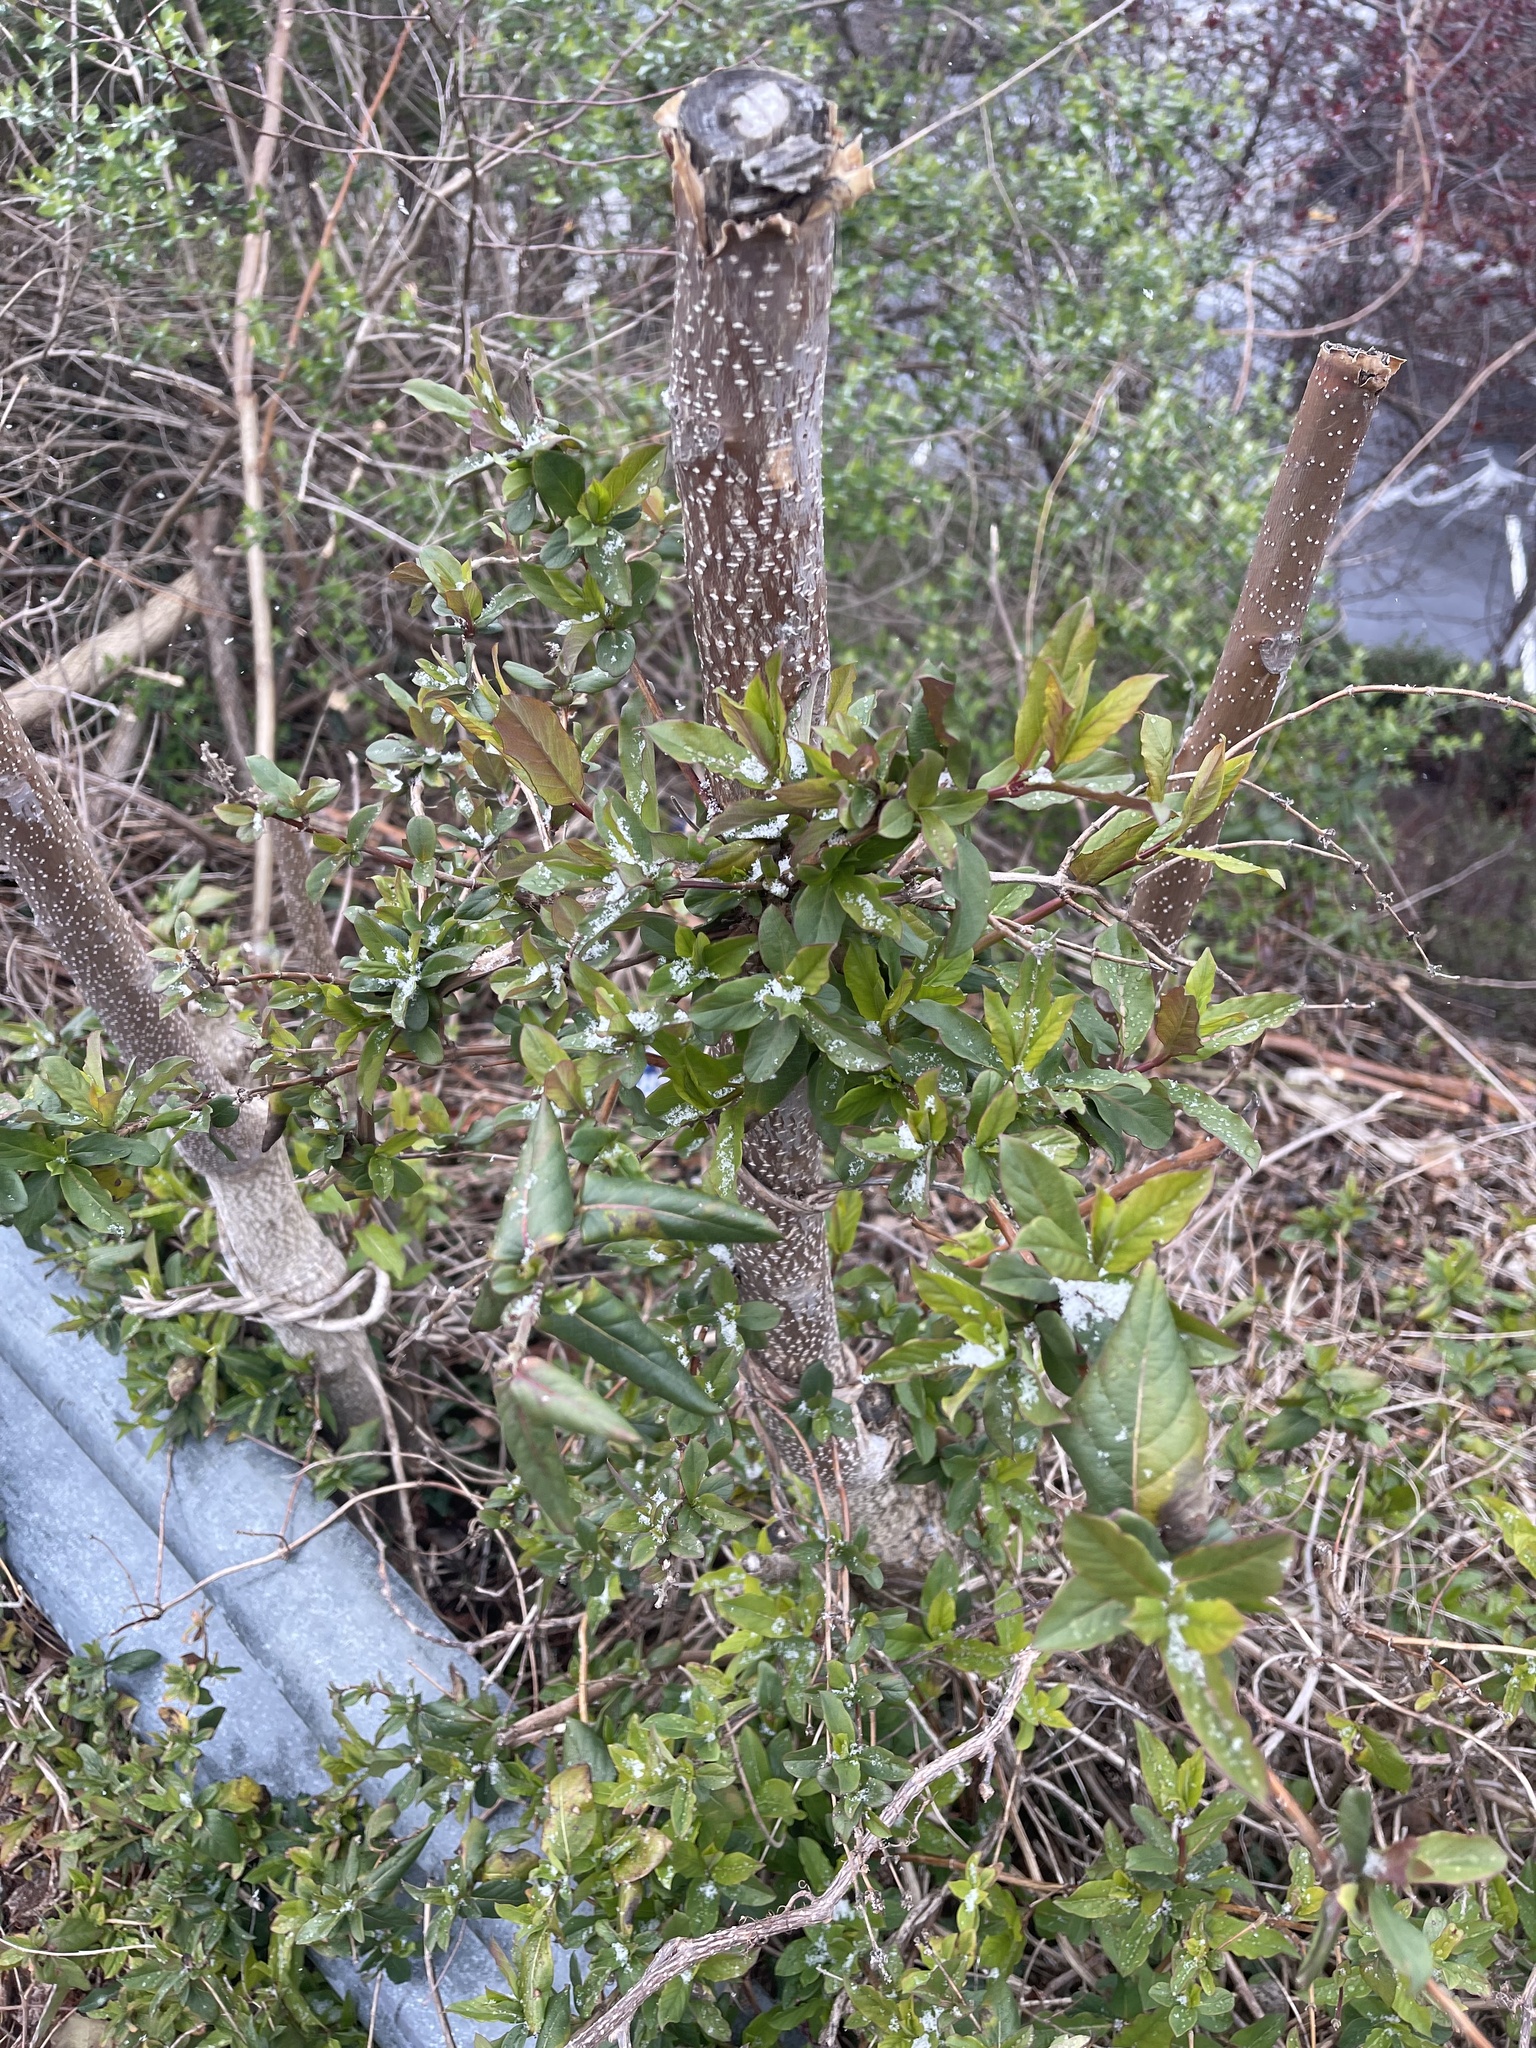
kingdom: Plantae
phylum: Tracheophyta
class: Magnoliopsida
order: Dipsacales
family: Caprifoliaceae
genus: Lonicera
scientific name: Lonicera japonica
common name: Japanese honeysuckle
